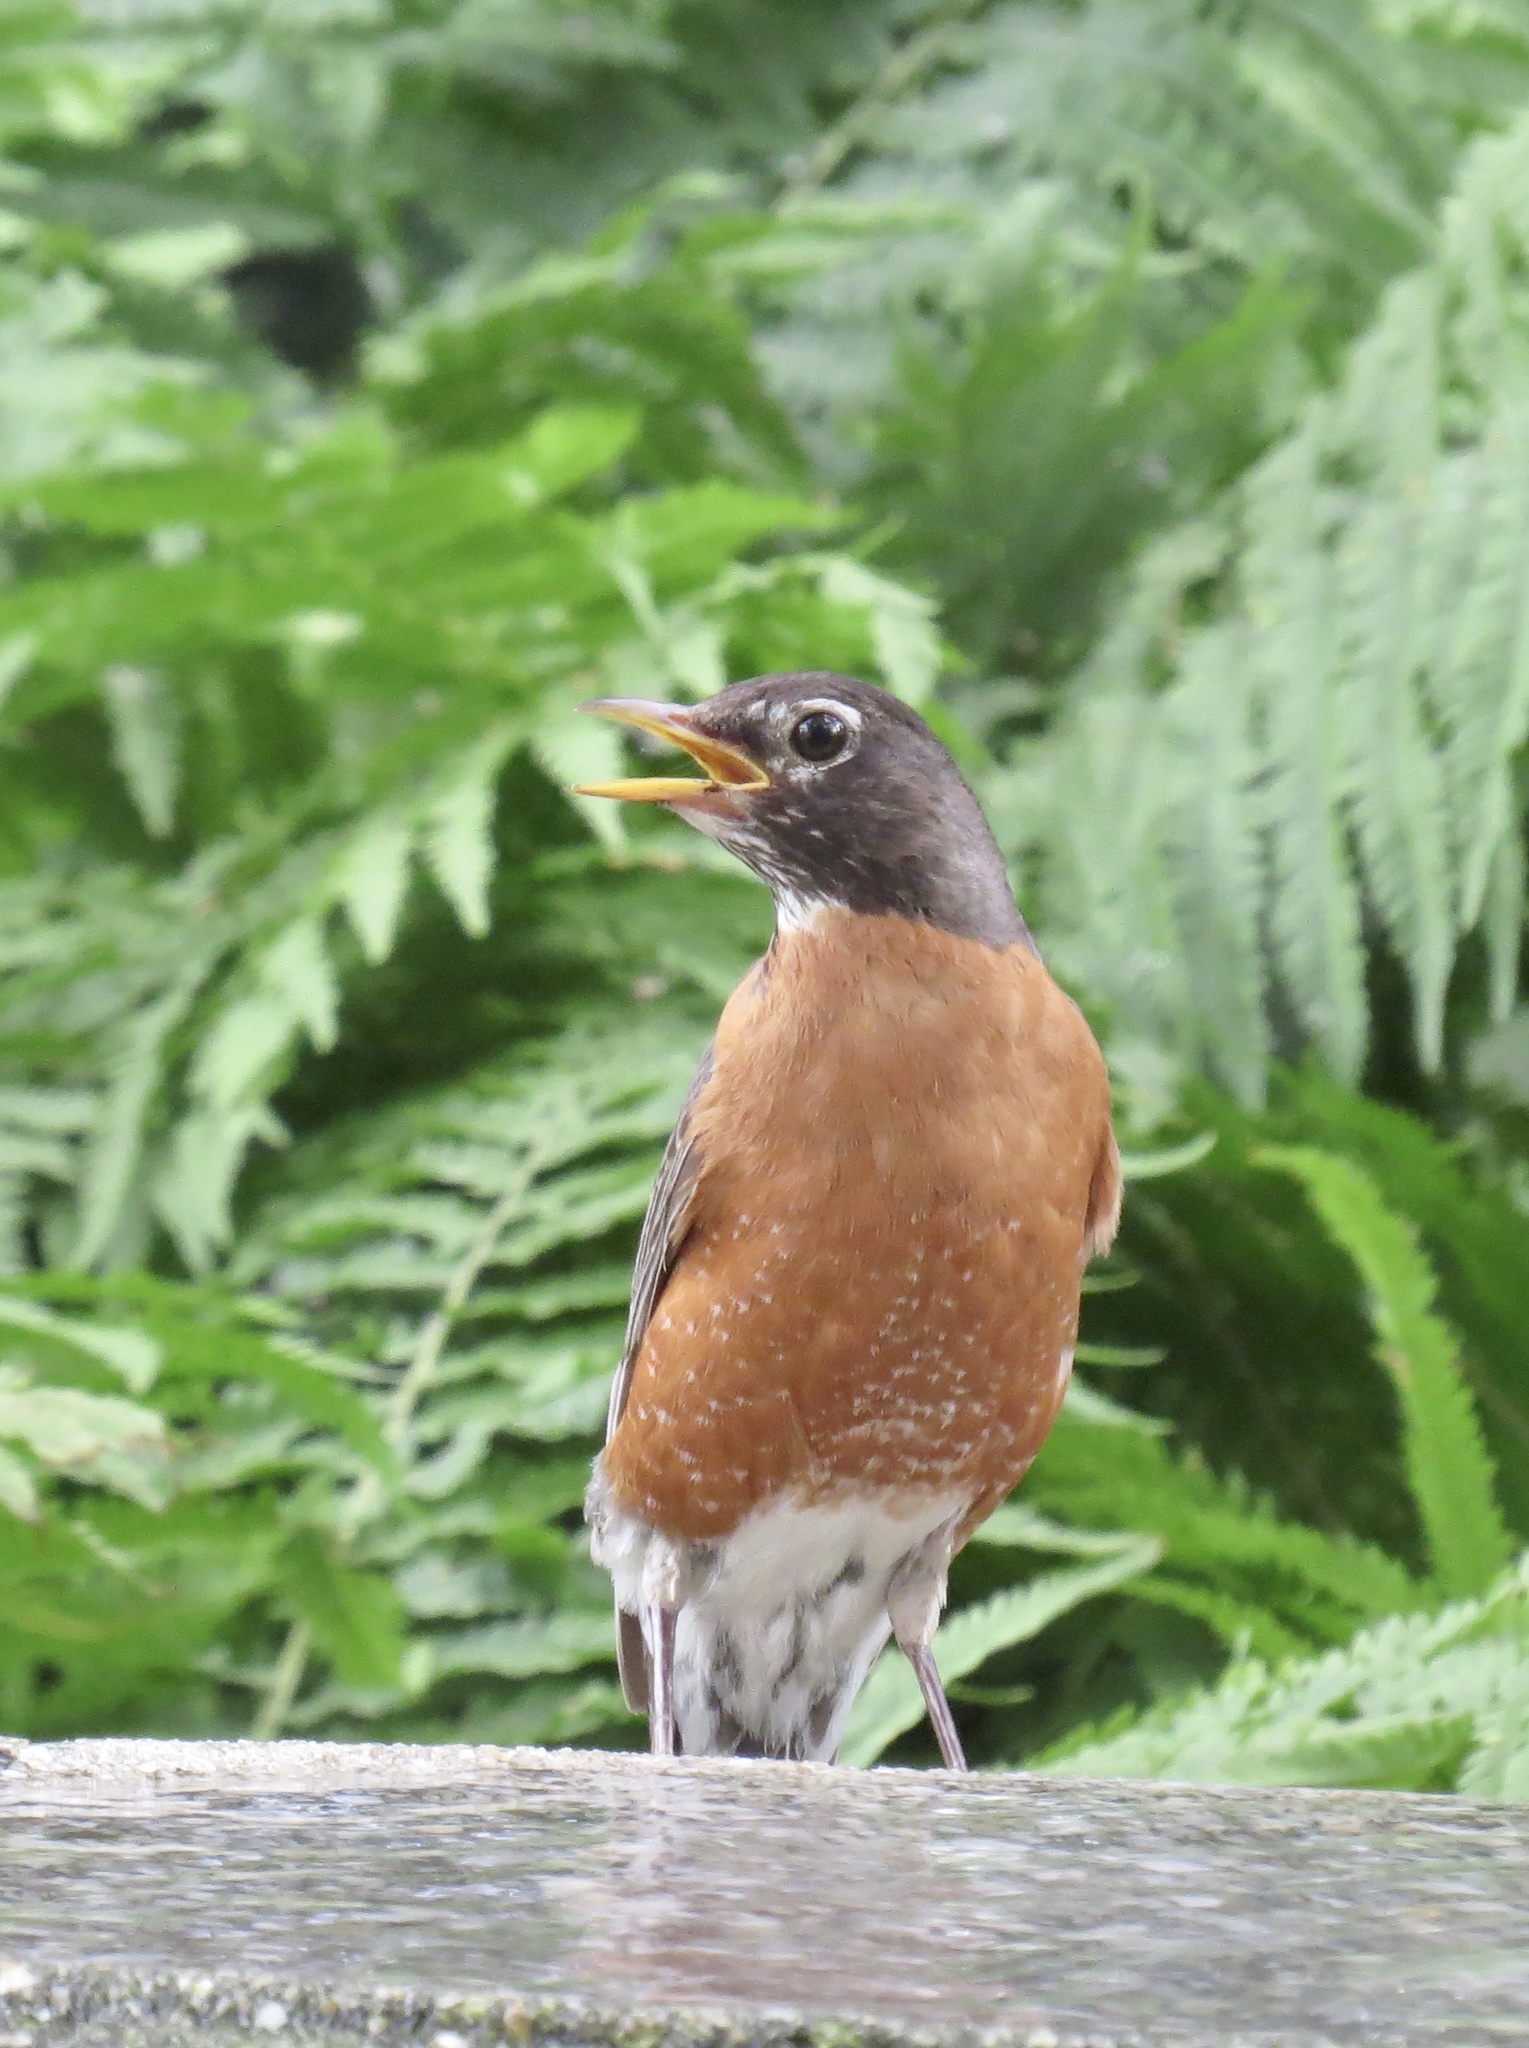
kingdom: Animalia
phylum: Chordata
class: Aves
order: Passeriformes
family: Turdidae
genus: Turdus
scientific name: Turdus migratorius
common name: American robin
